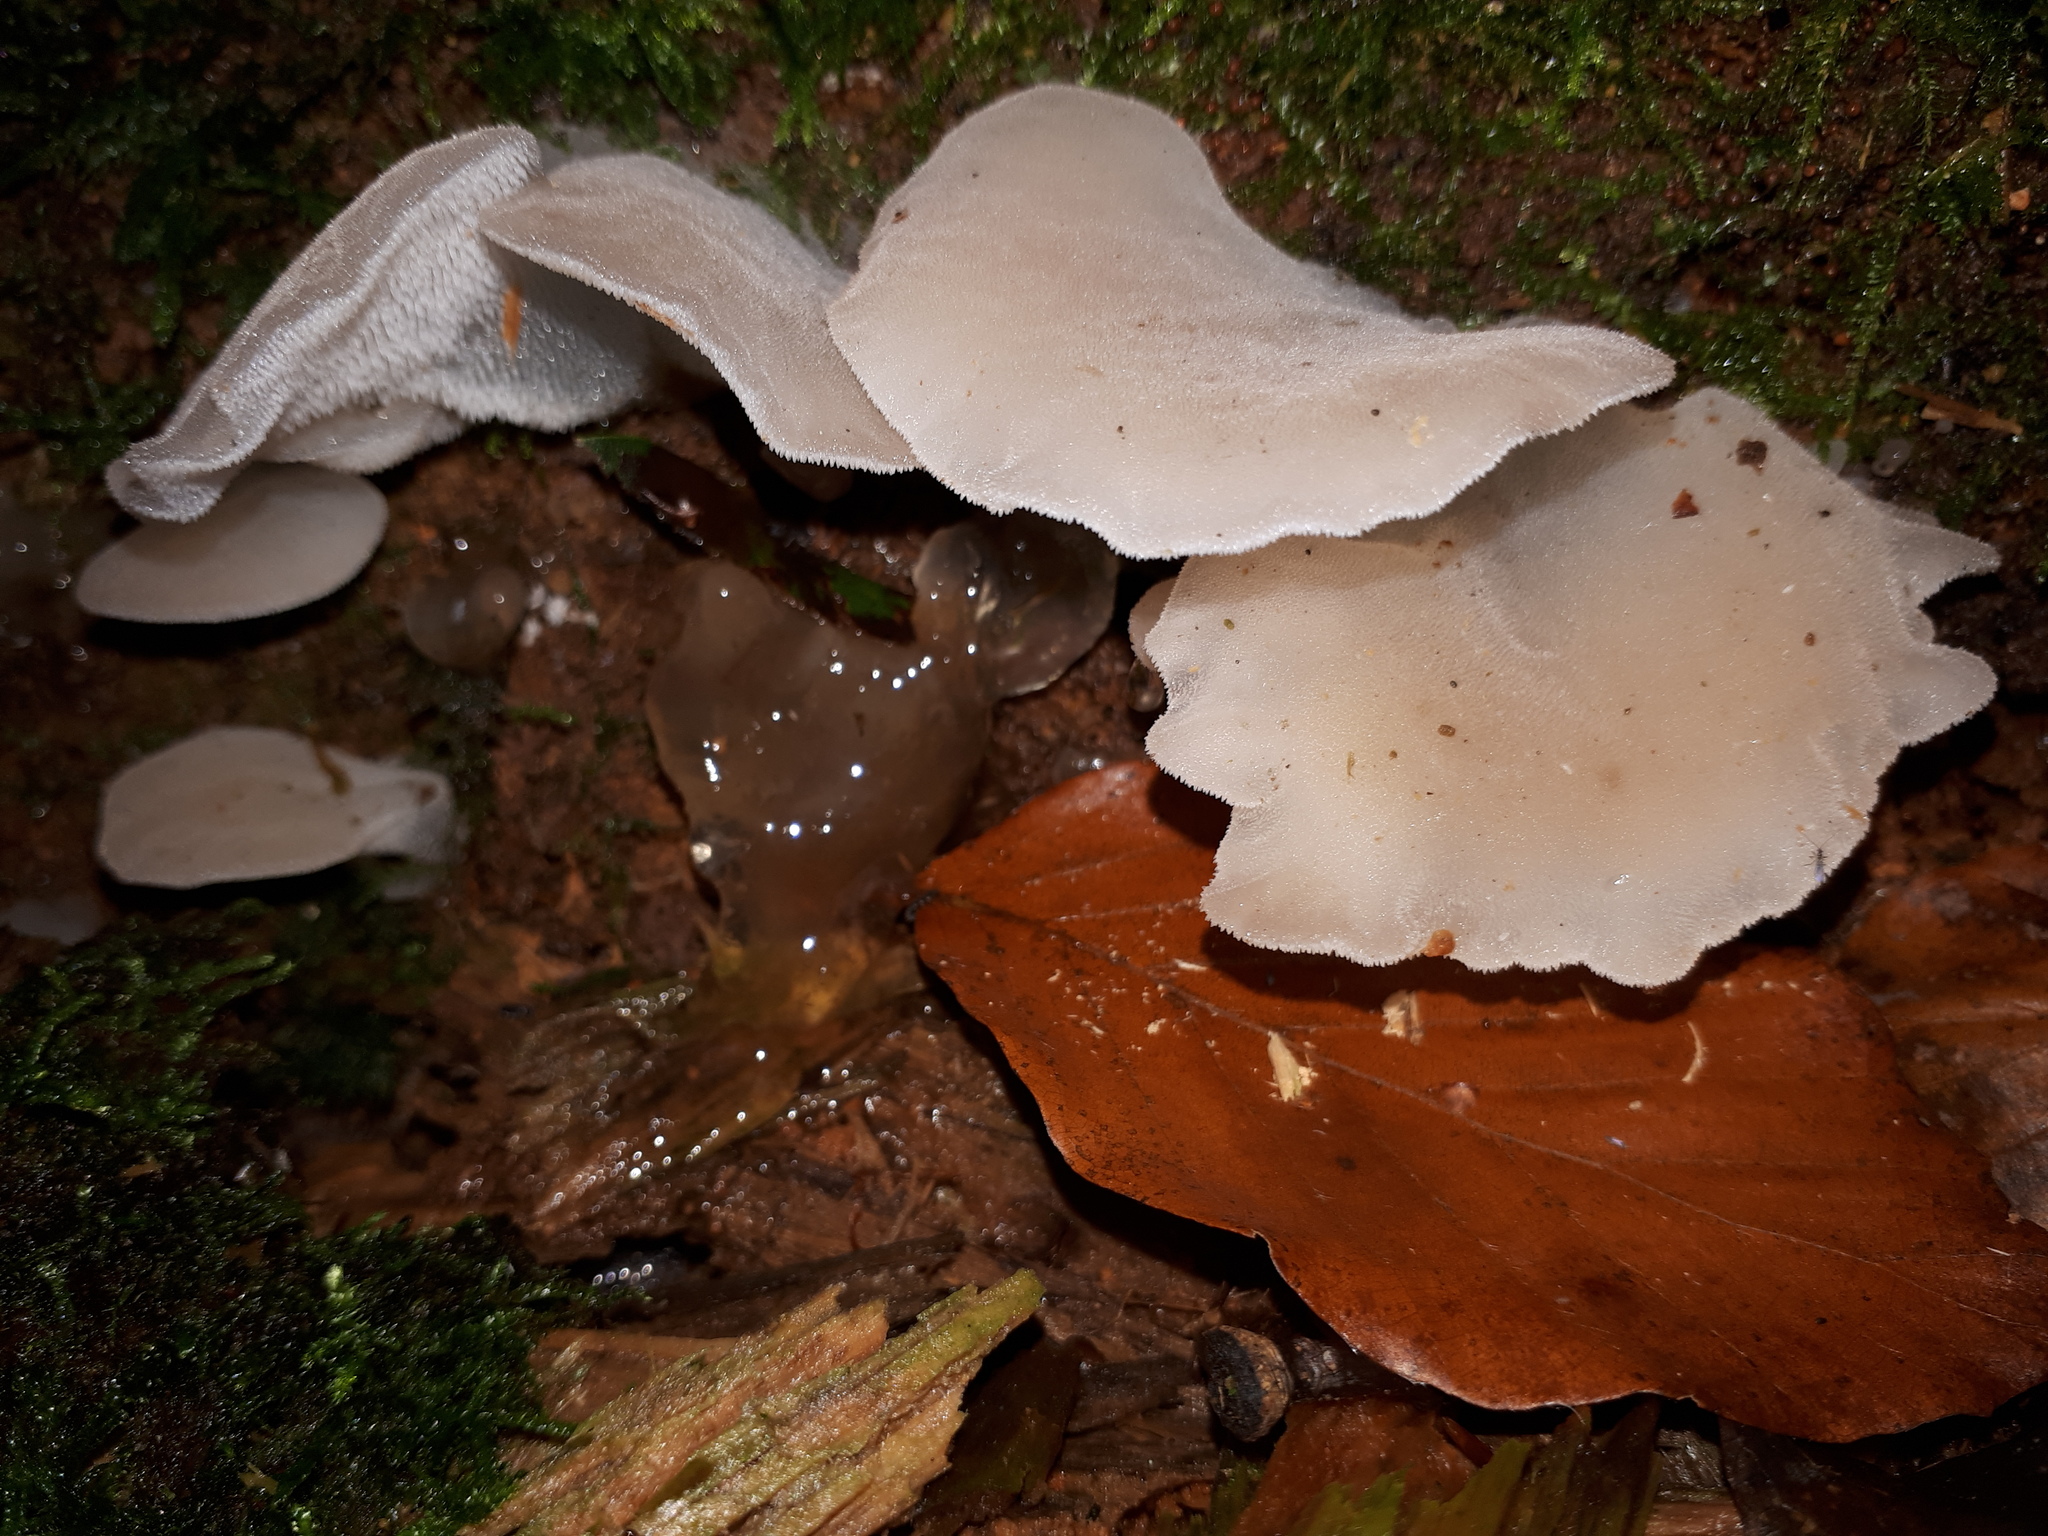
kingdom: Fungi
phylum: Basidiomycota
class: Agaricomycetes
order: Auriculariales
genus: Pseudohydnum
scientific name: Pseudohydnum gelatinosum
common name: Jelly tongue
